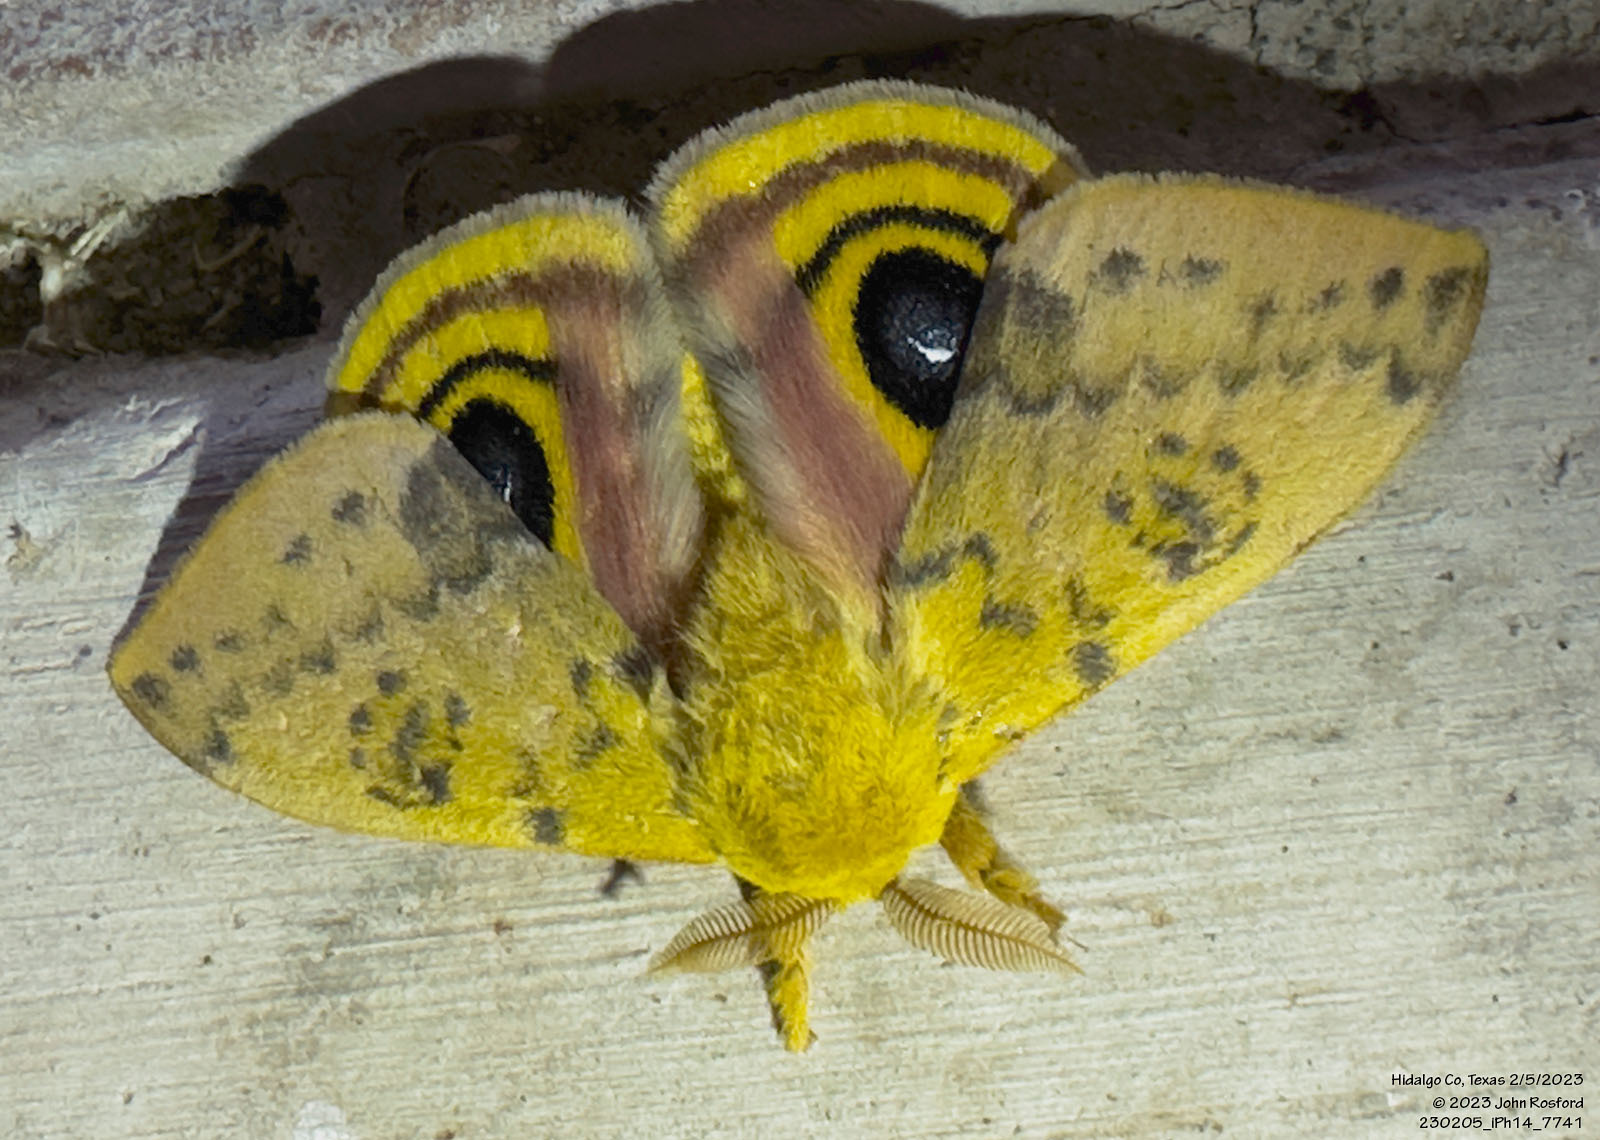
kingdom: Animalia
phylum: Arthropoda
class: Insecta
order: Lepidoptera
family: Saturniidae
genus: Automeris
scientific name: Automeris io
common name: Io moth
